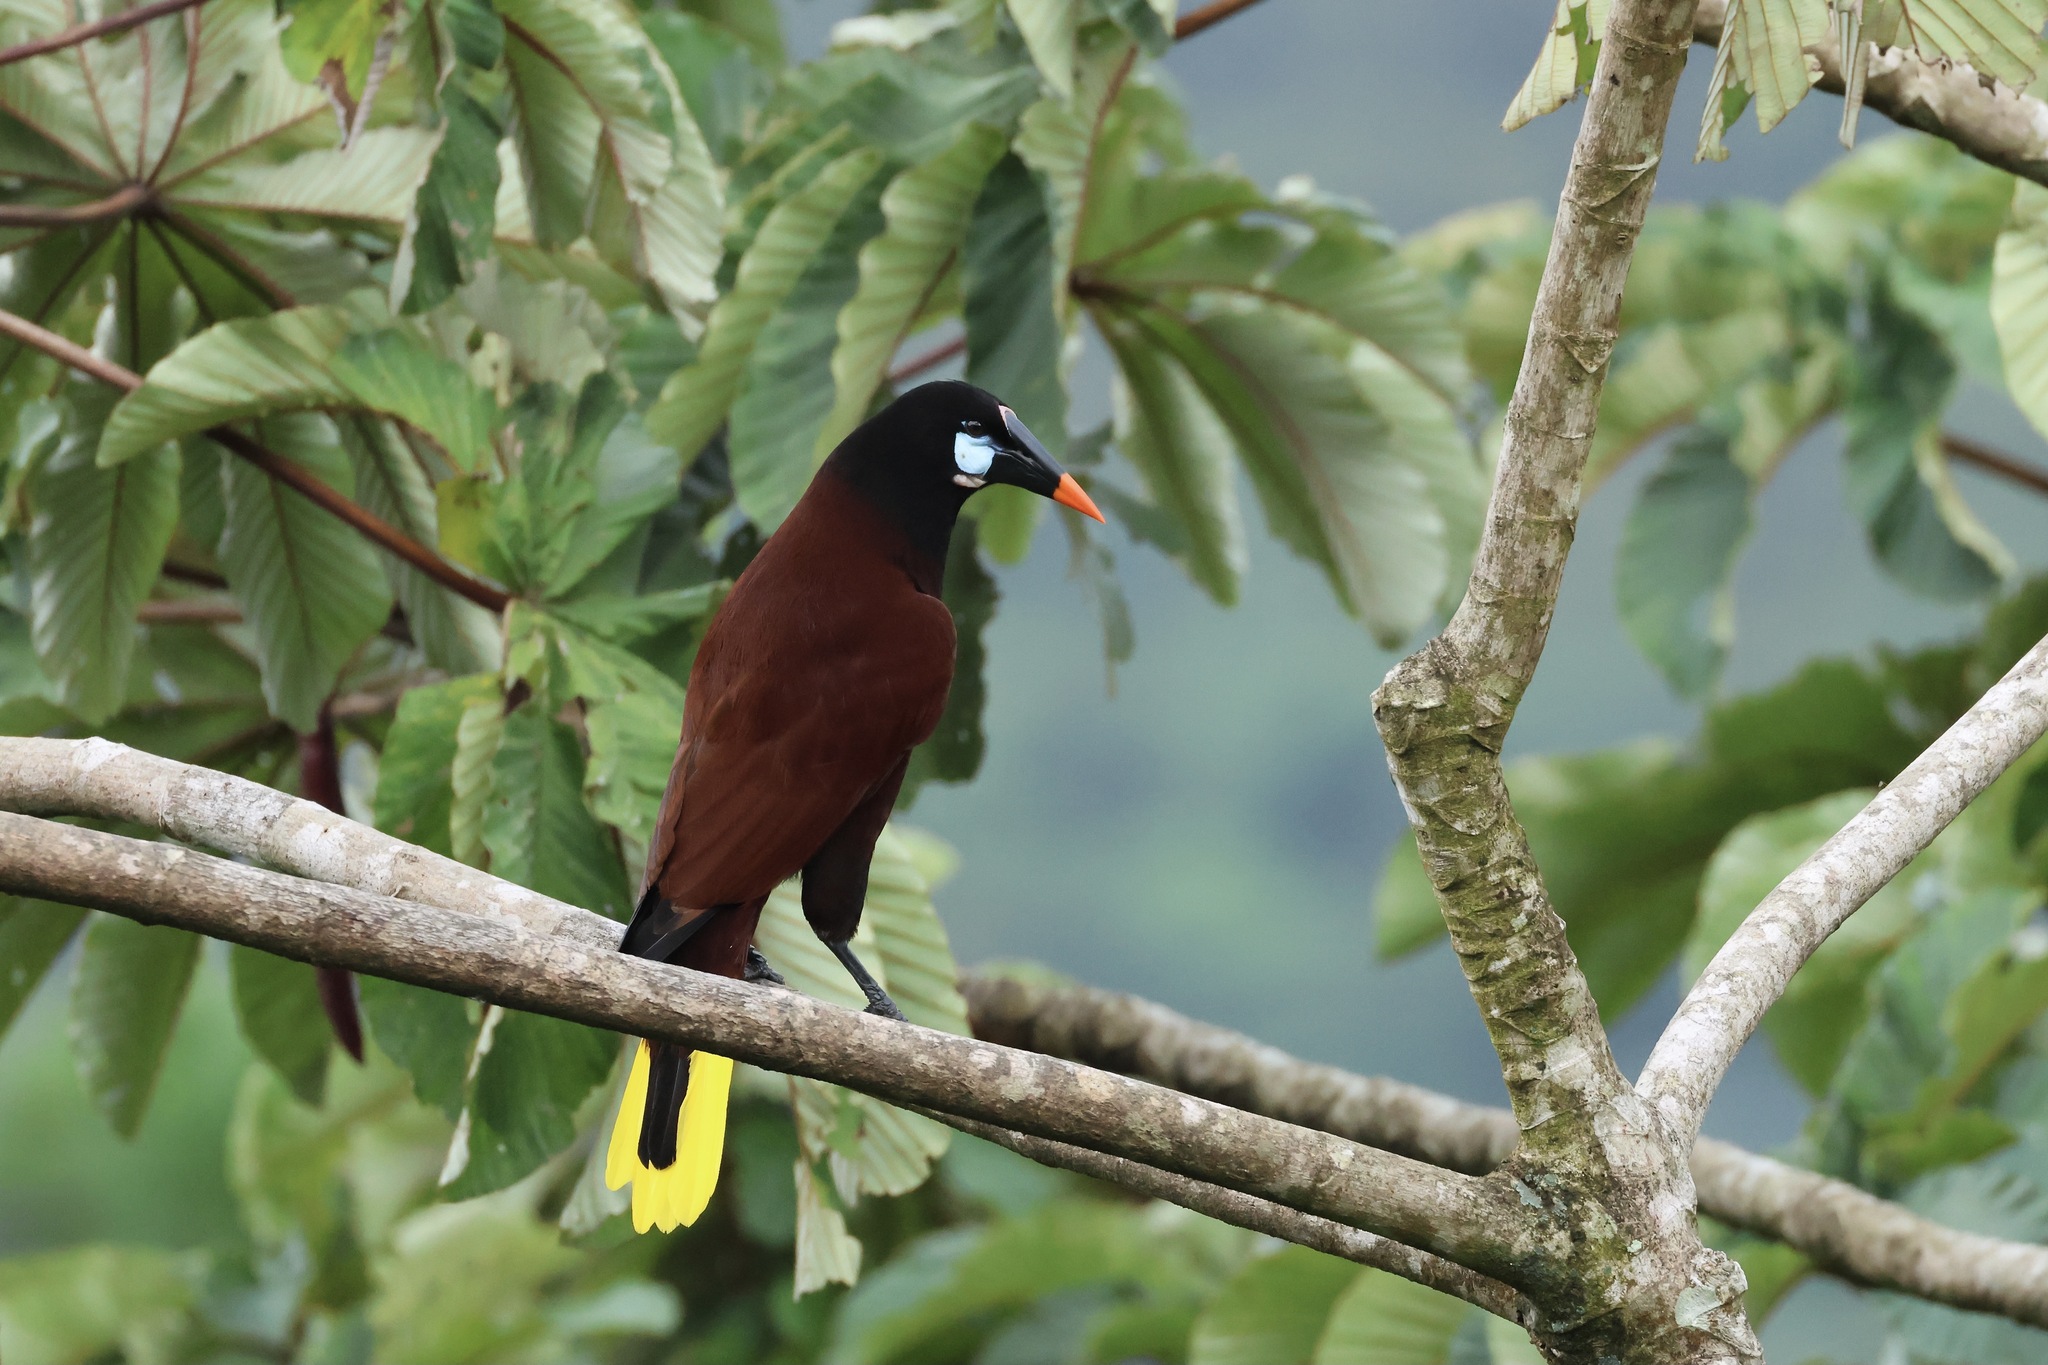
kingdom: Animalia
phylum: Chordata
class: Aves
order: Passeriformes
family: Icteridae
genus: Psarocolius
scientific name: Psarocolius montezuma
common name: Montezuma oropendola
